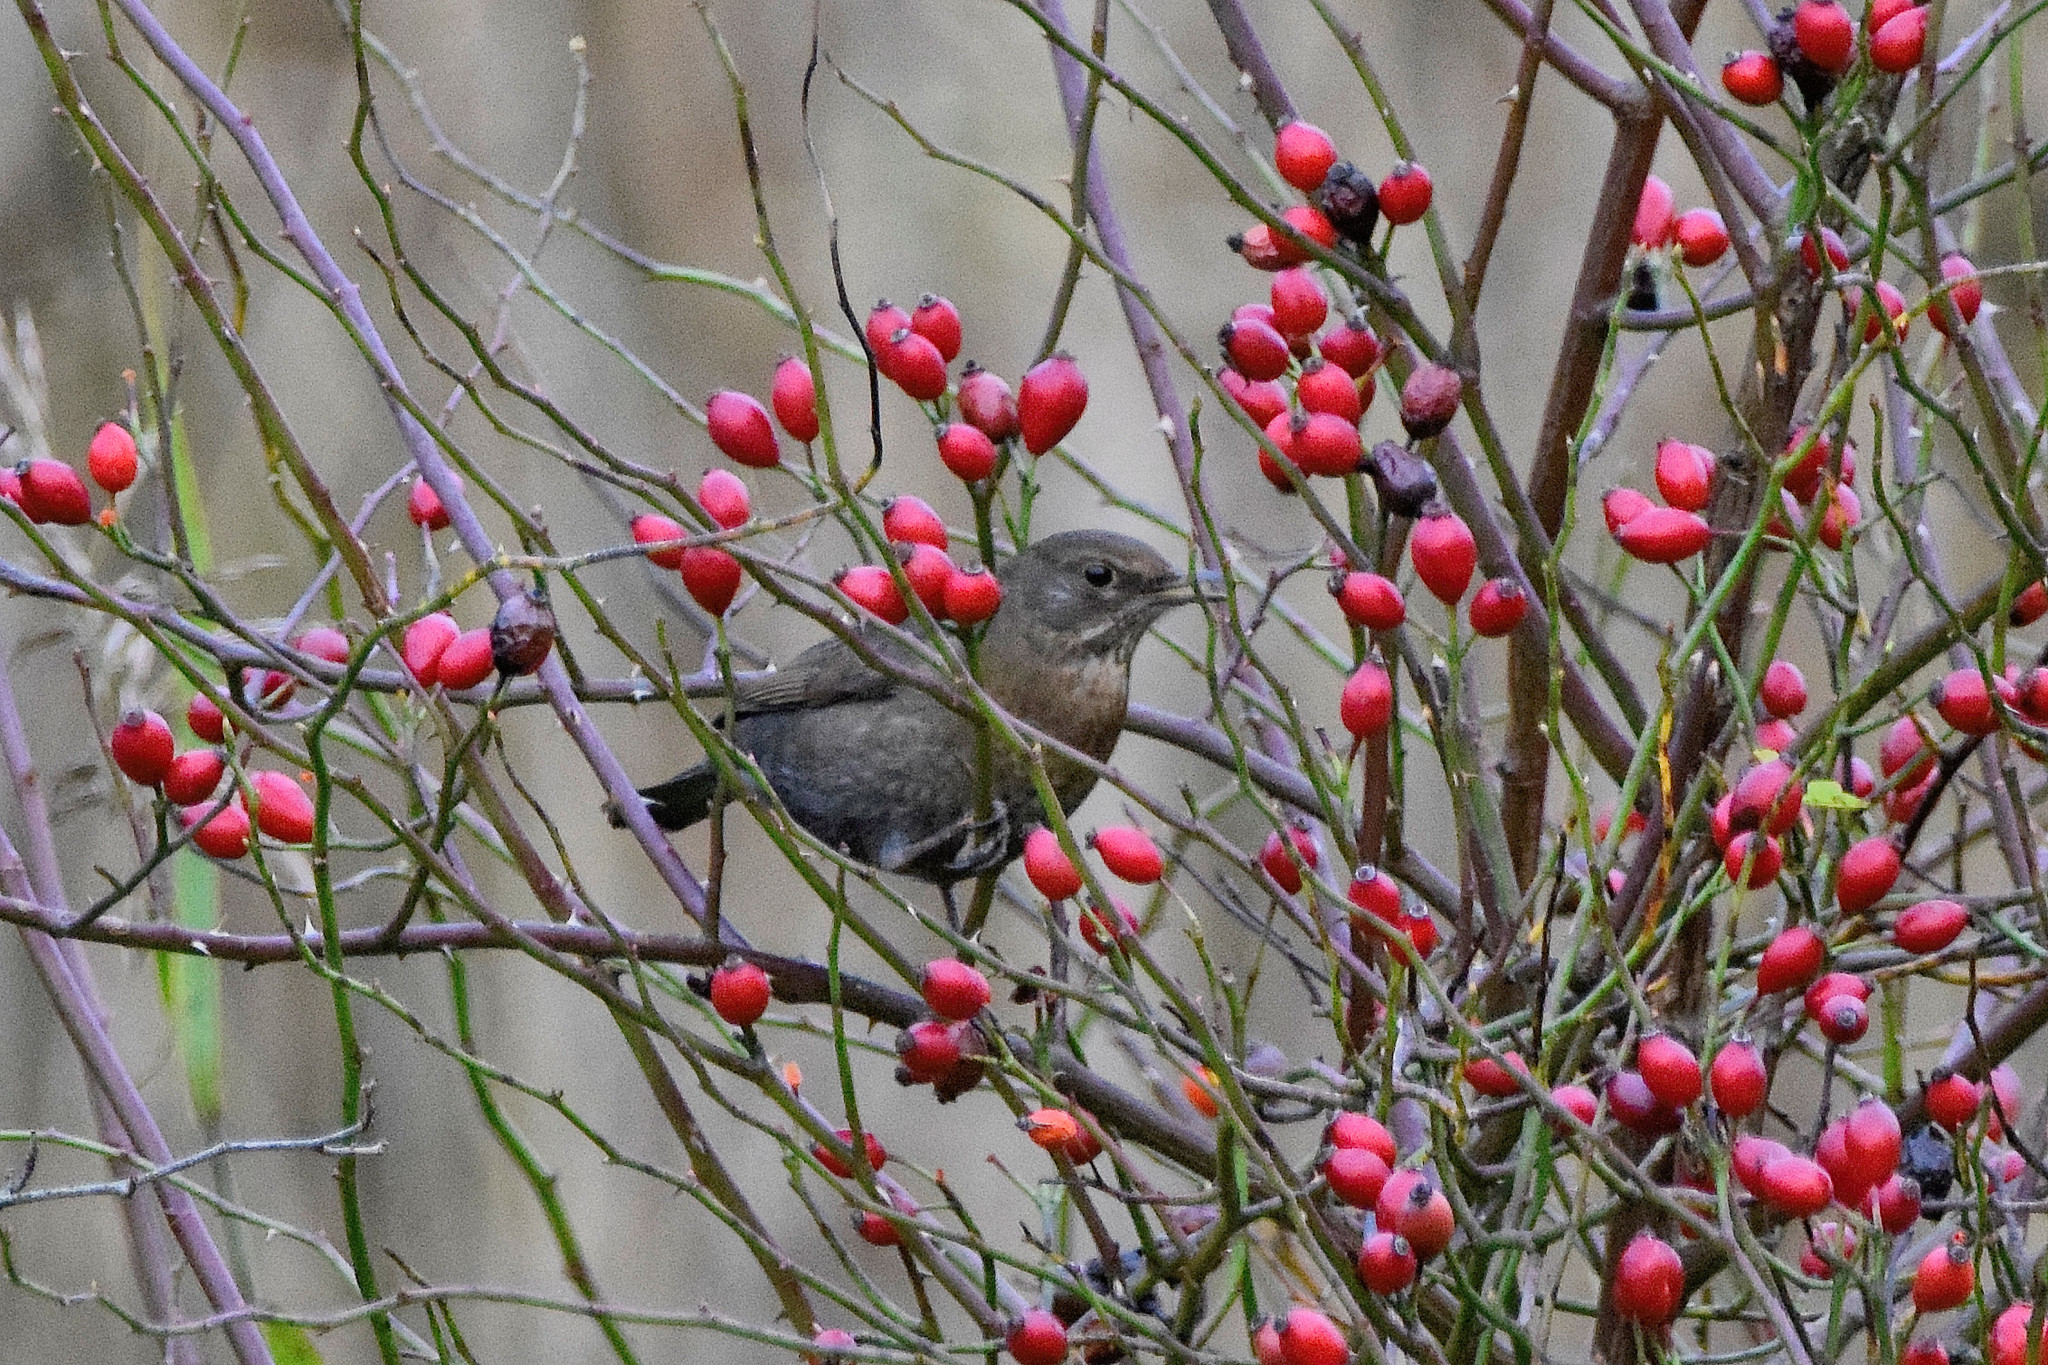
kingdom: Animalia
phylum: Chordata
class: Aves
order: Passeriformes
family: Turdidae
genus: Turdus
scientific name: Turdus merula
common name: Common blackbird
